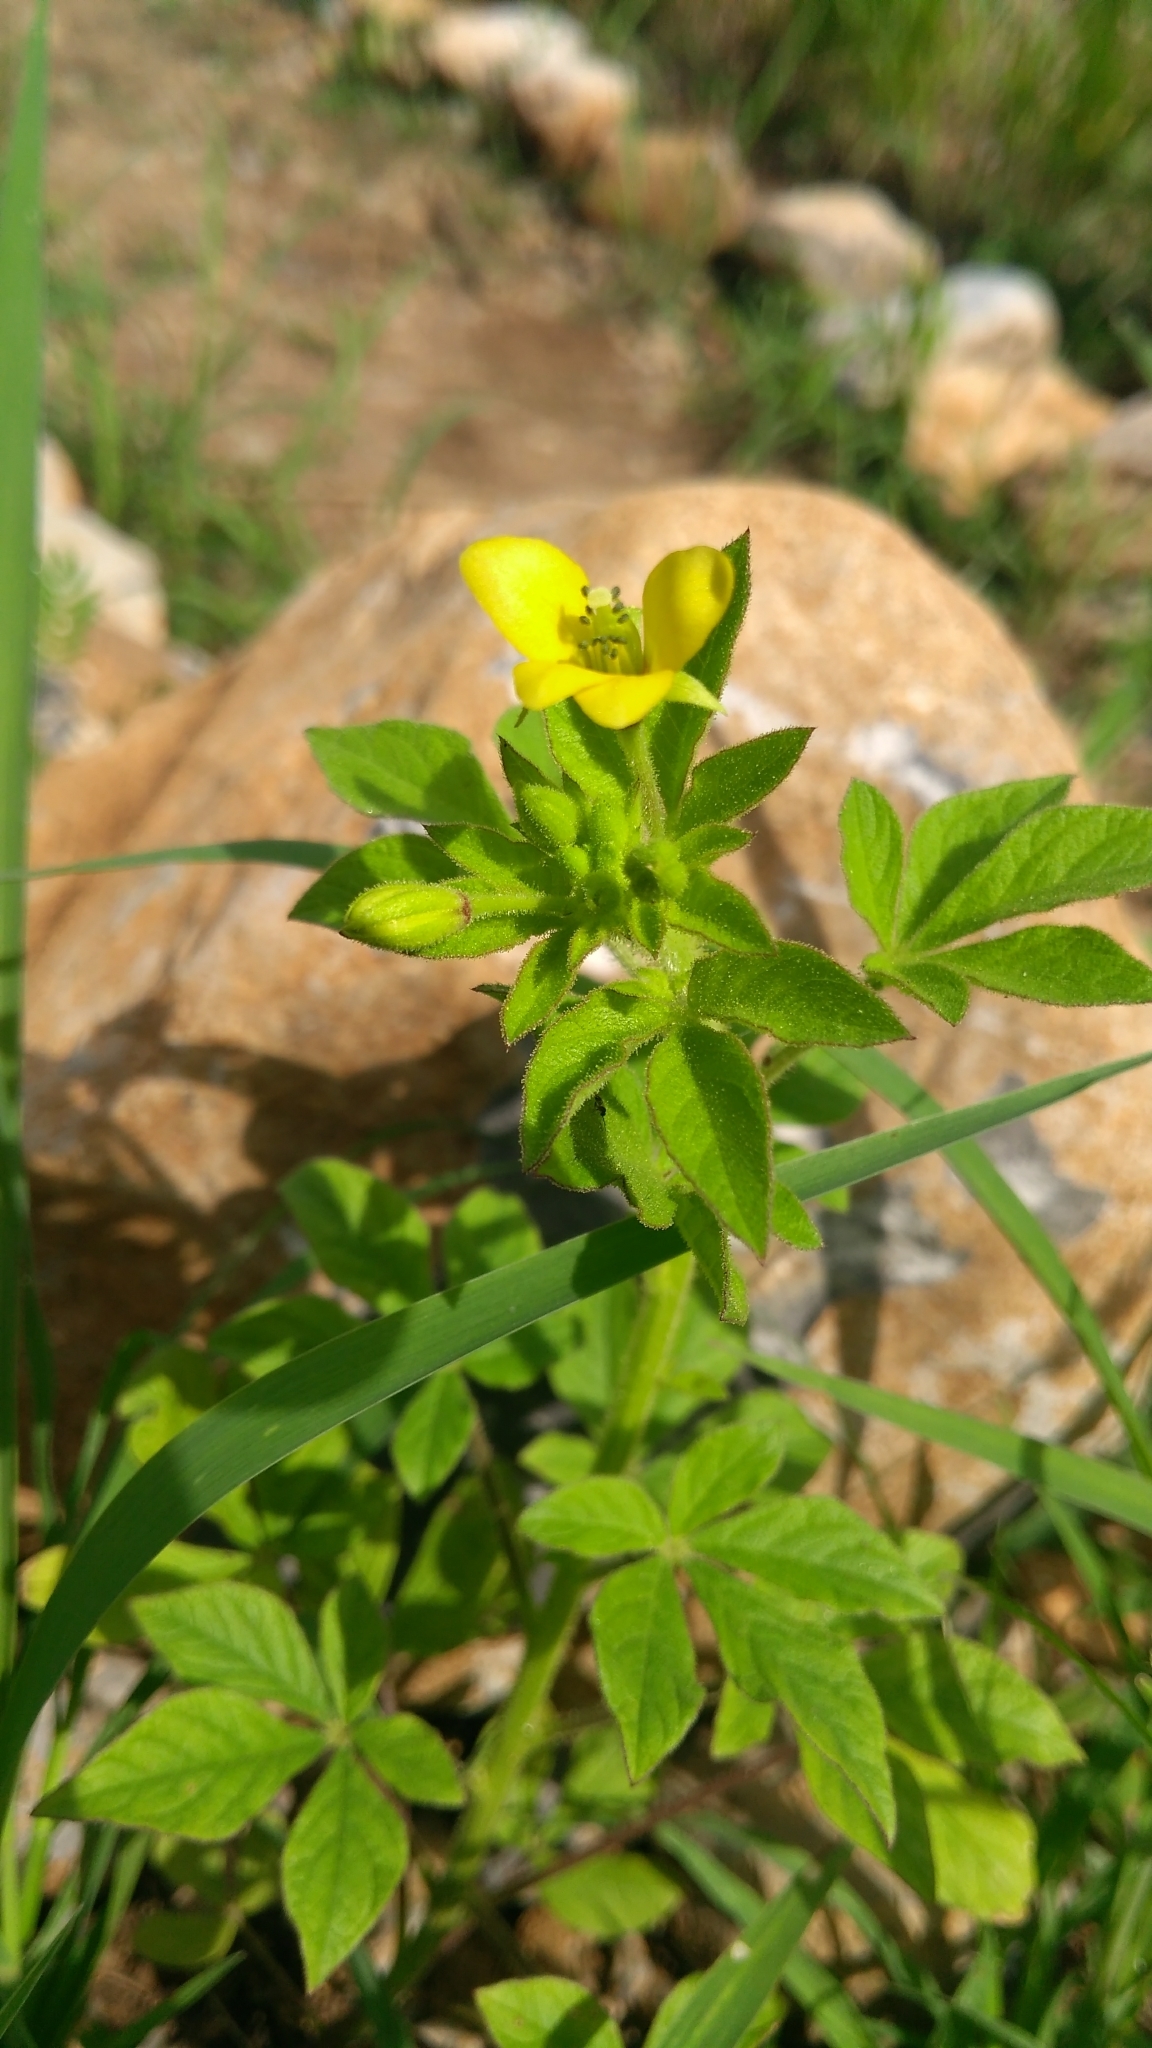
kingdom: Plantae
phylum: Tracheophyta
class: Magnoliopsida
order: Brassicales
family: Cleomaceae
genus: Arivela
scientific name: Arivela viscosa
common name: Asian spiderflower
